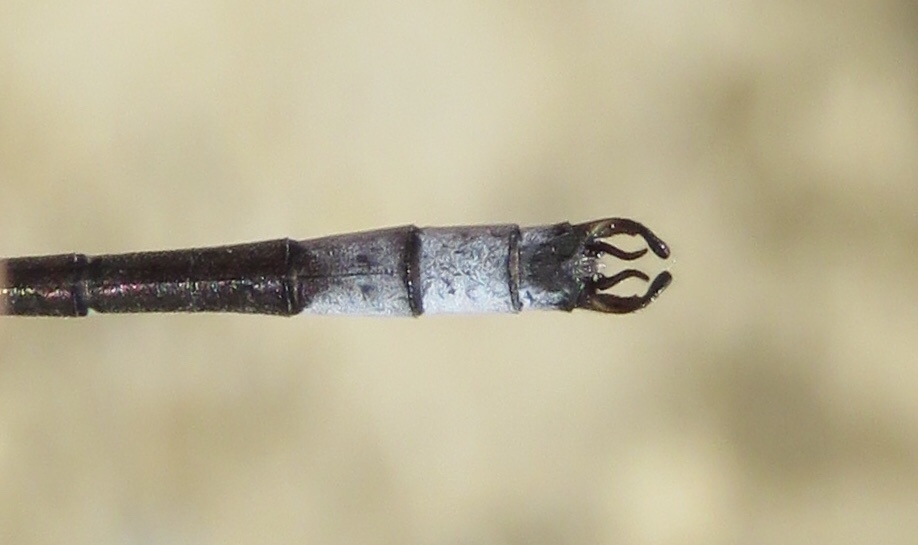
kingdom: Animalia
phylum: Arthropoda
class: Insecta
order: Odonata
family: Lestidae
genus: Lestes
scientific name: Lestes unguiculatus
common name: Lyre-tipped spreadwing
